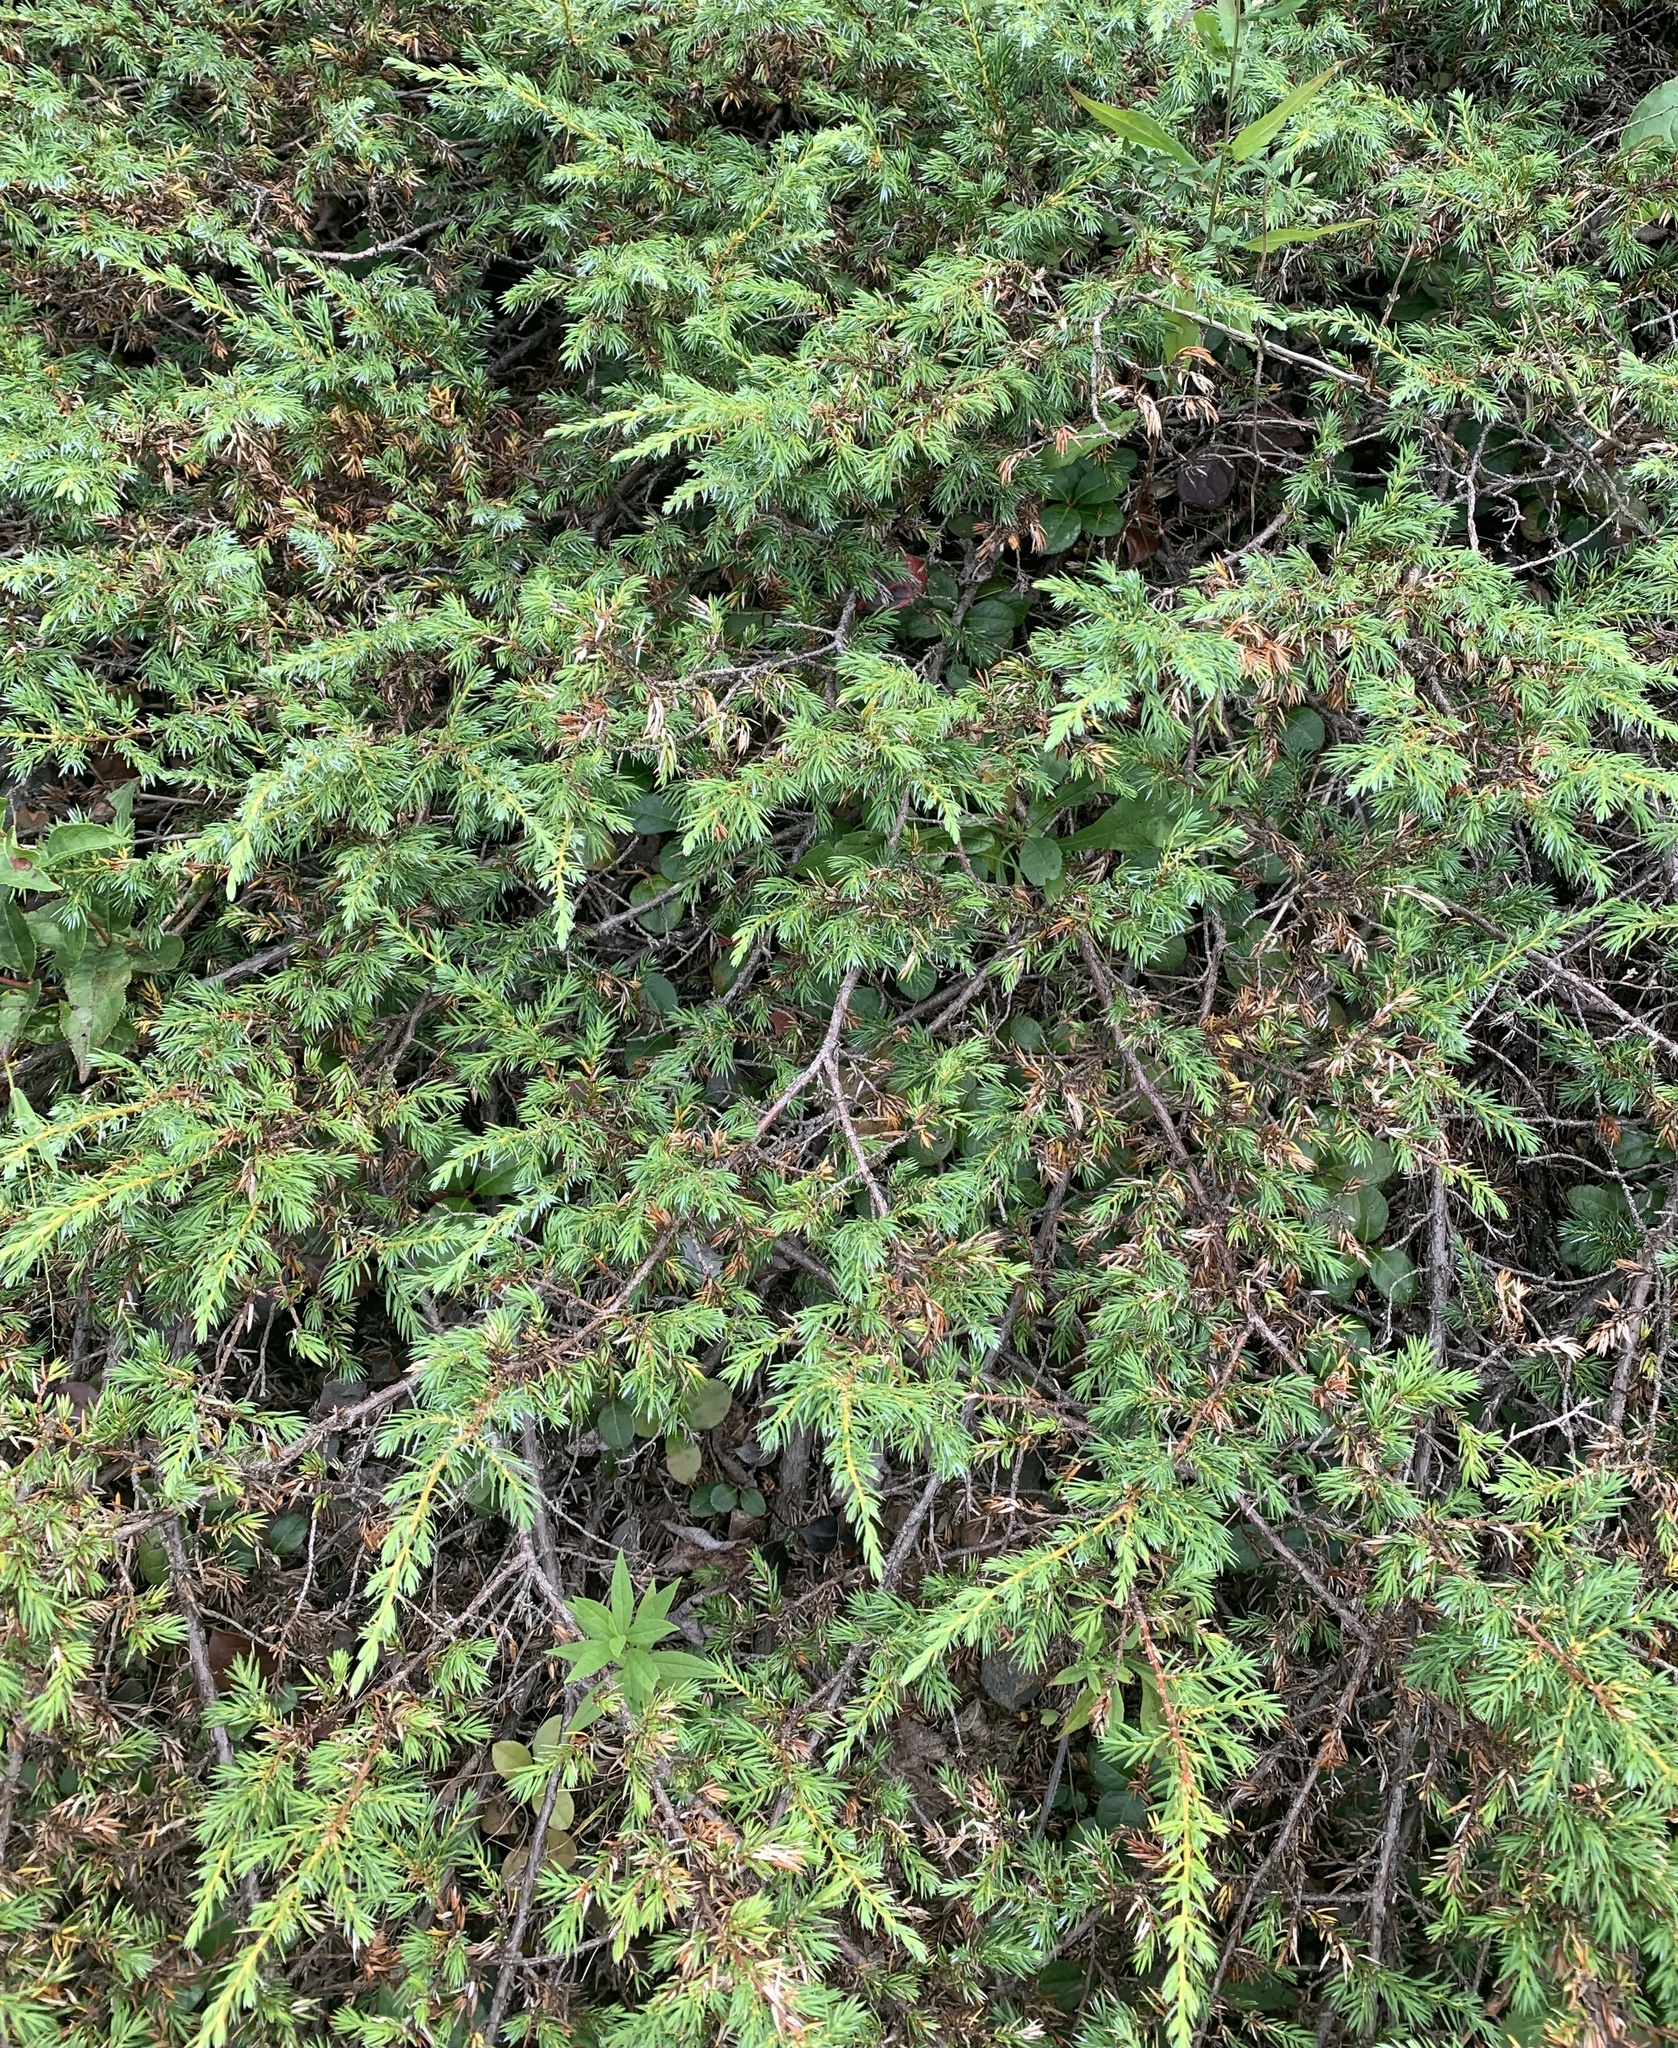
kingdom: Plantae
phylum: Tracheophyta
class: Pinopsida
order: Pinales
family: Cupressaceae
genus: Juniperus
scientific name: Juniperus communis
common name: Common juniper
